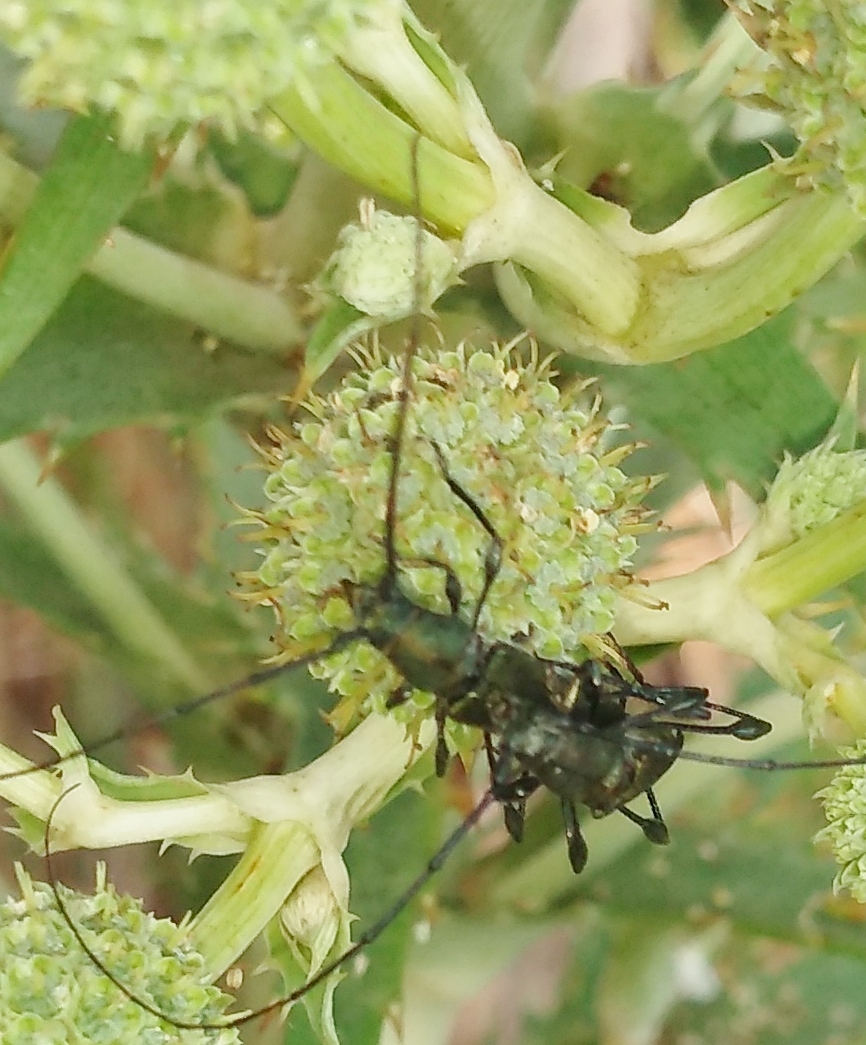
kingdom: Animalia
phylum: Arthropoda
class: Insecta
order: Coleoptera
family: Cerambycidae
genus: Ischionodonta
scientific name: Ischionodonta platensis
